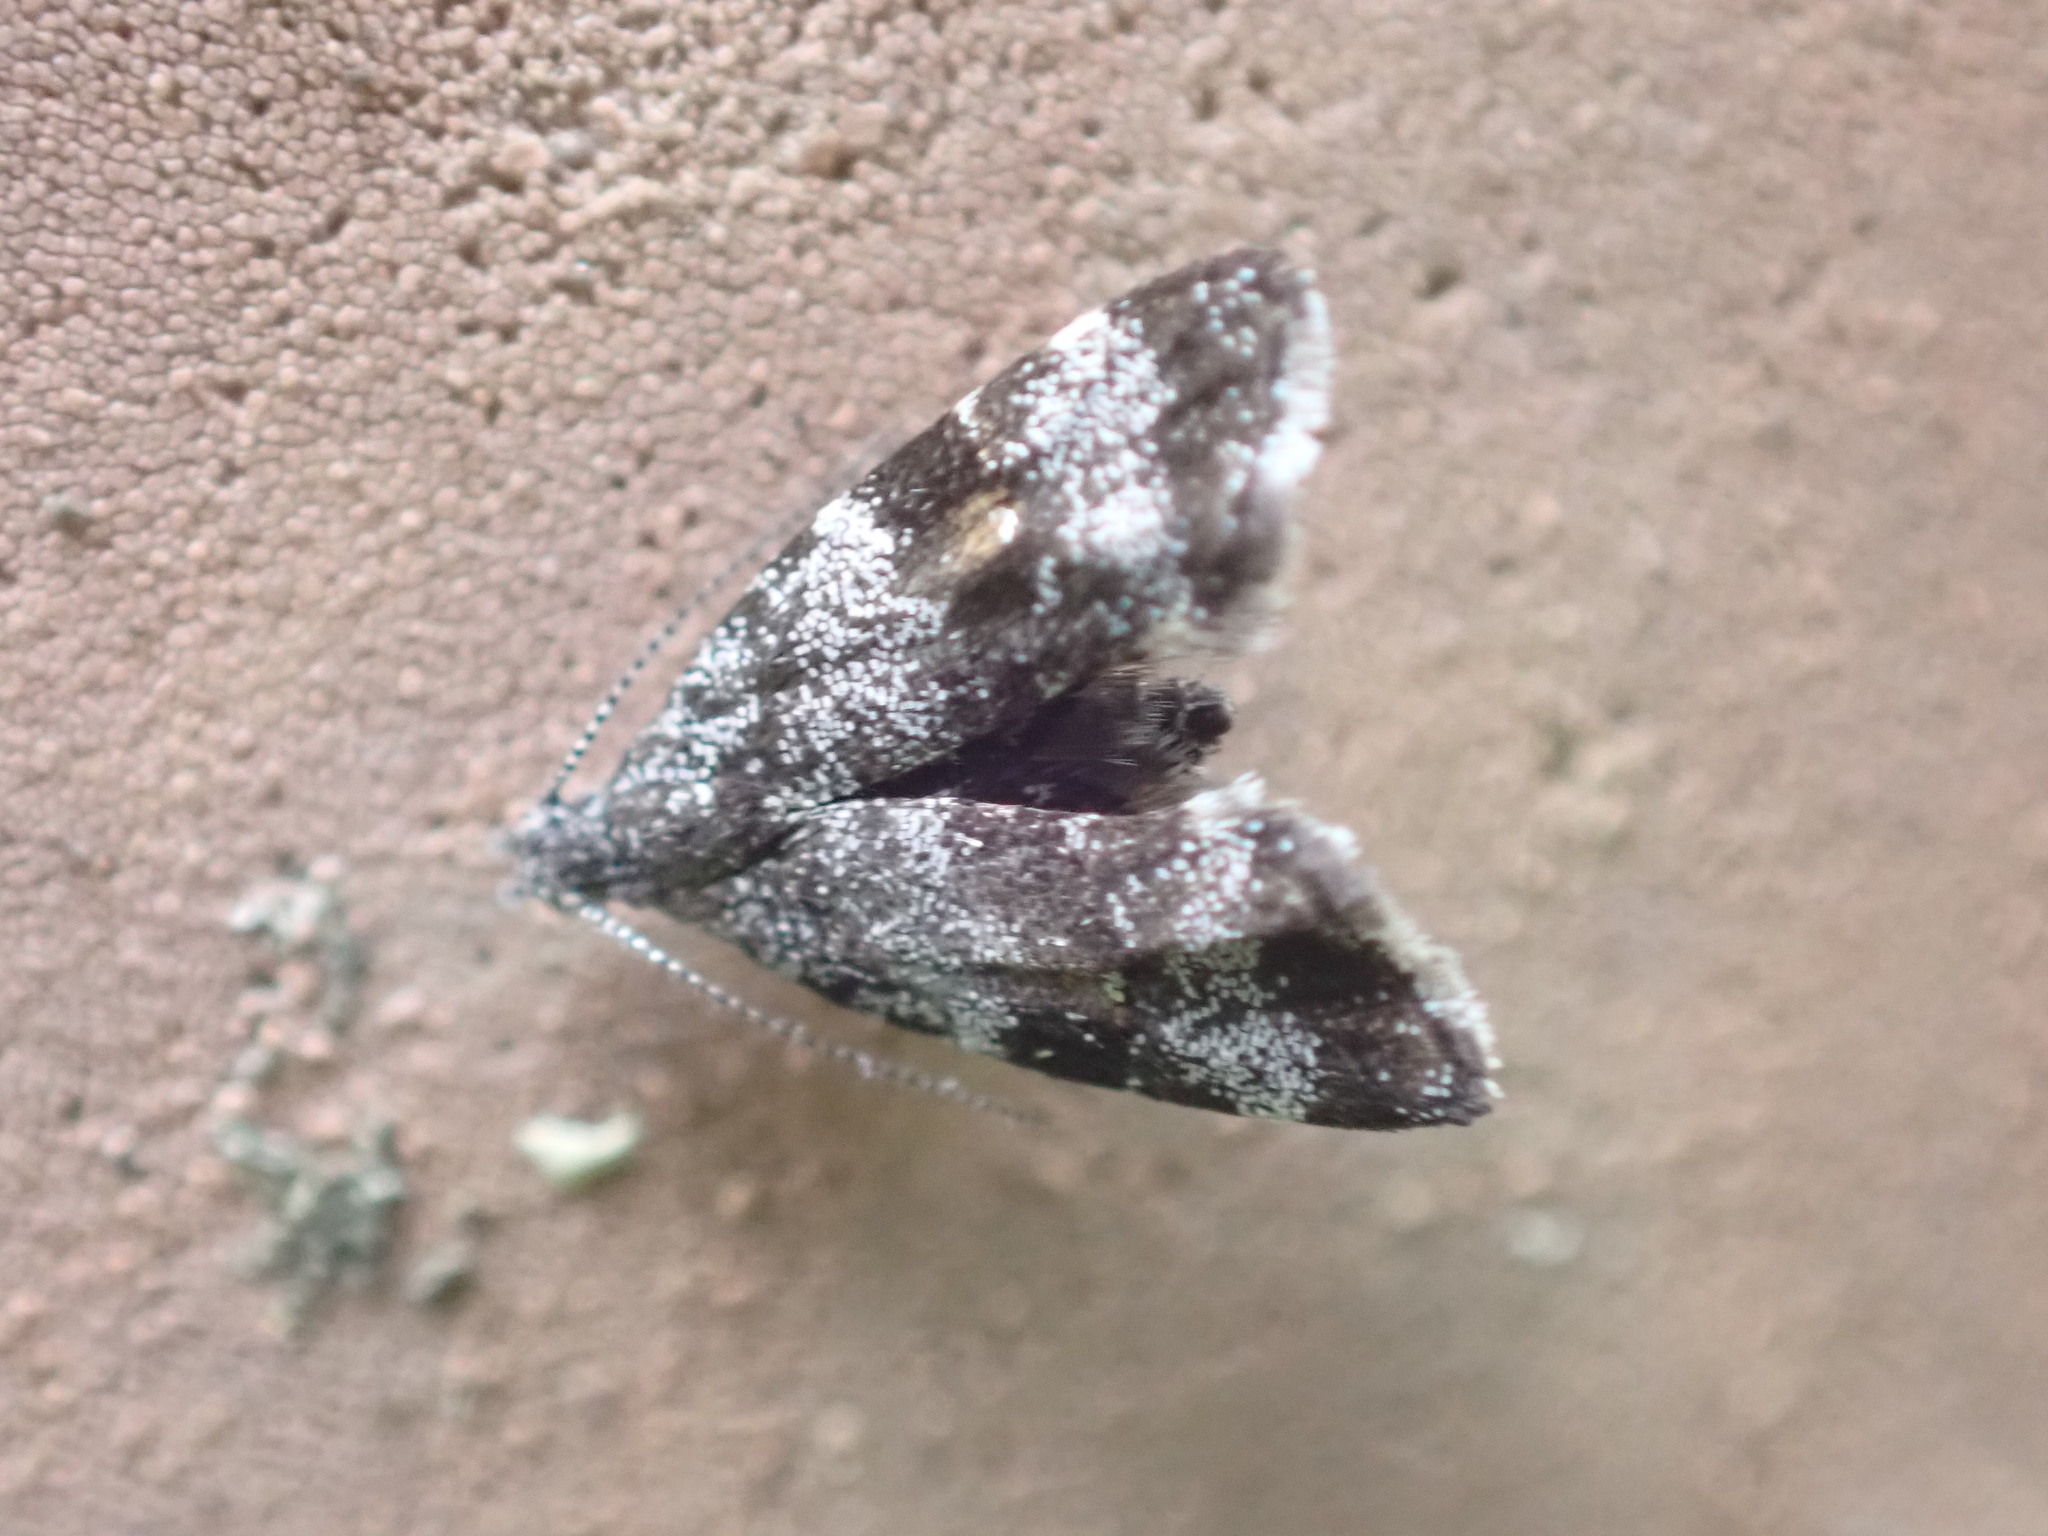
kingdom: Animalia
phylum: Arthropoda
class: Insecta
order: Lepidoptera
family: Choreutidae
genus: Asterivora
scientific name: Asterivora antigrapha
